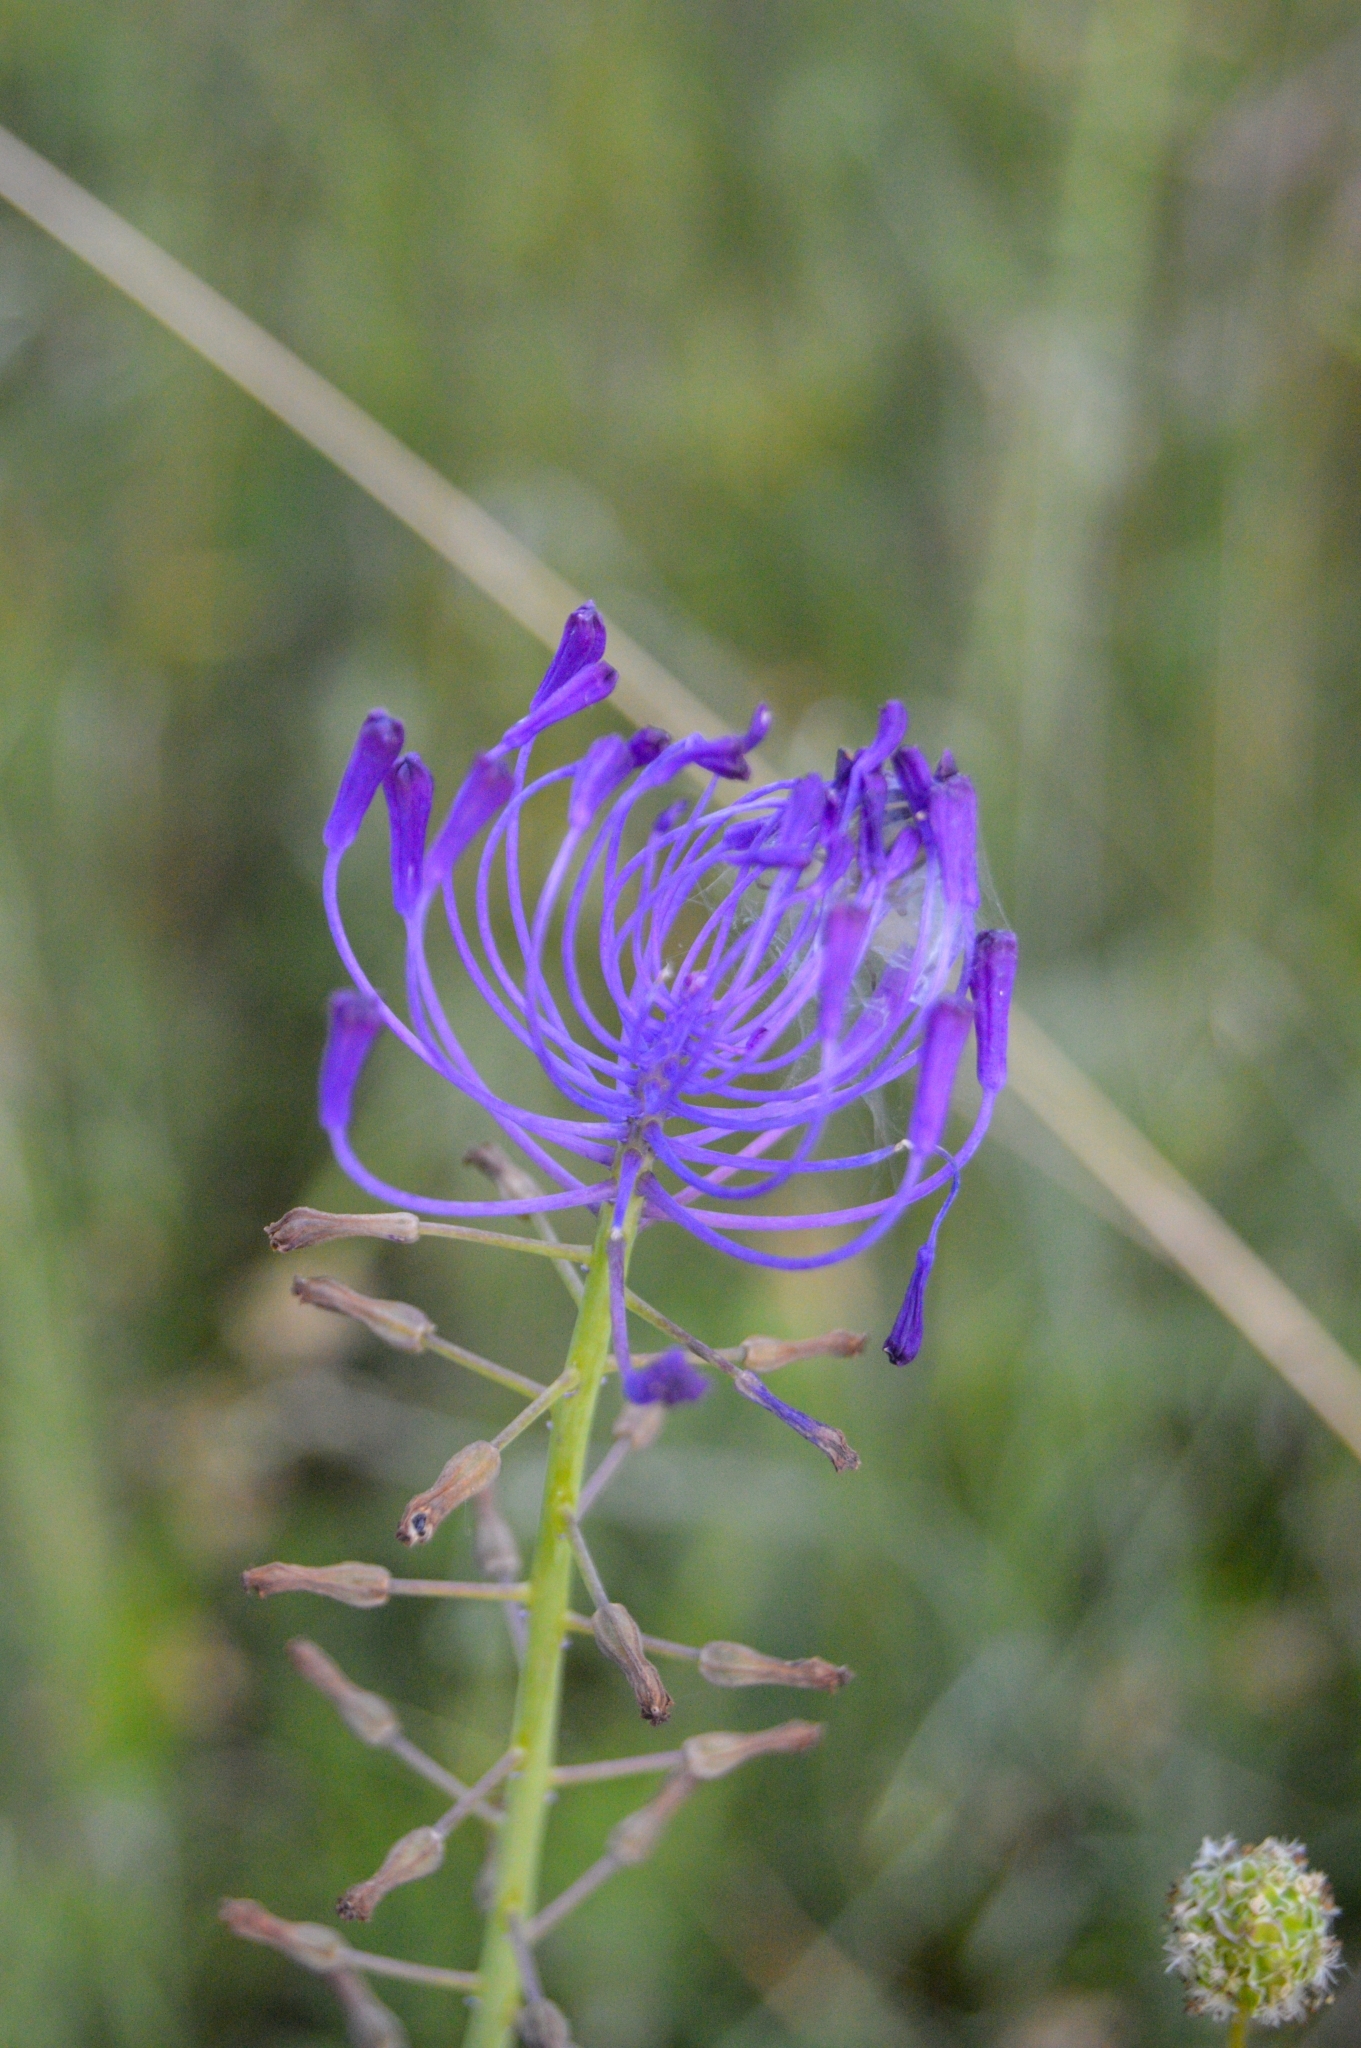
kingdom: Plantae
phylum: Tracheophyta
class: Liliopsida
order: Asparagales
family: Asparagaceae
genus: Muscari
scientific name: Muscari comosum
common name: Tassel hyacinth
